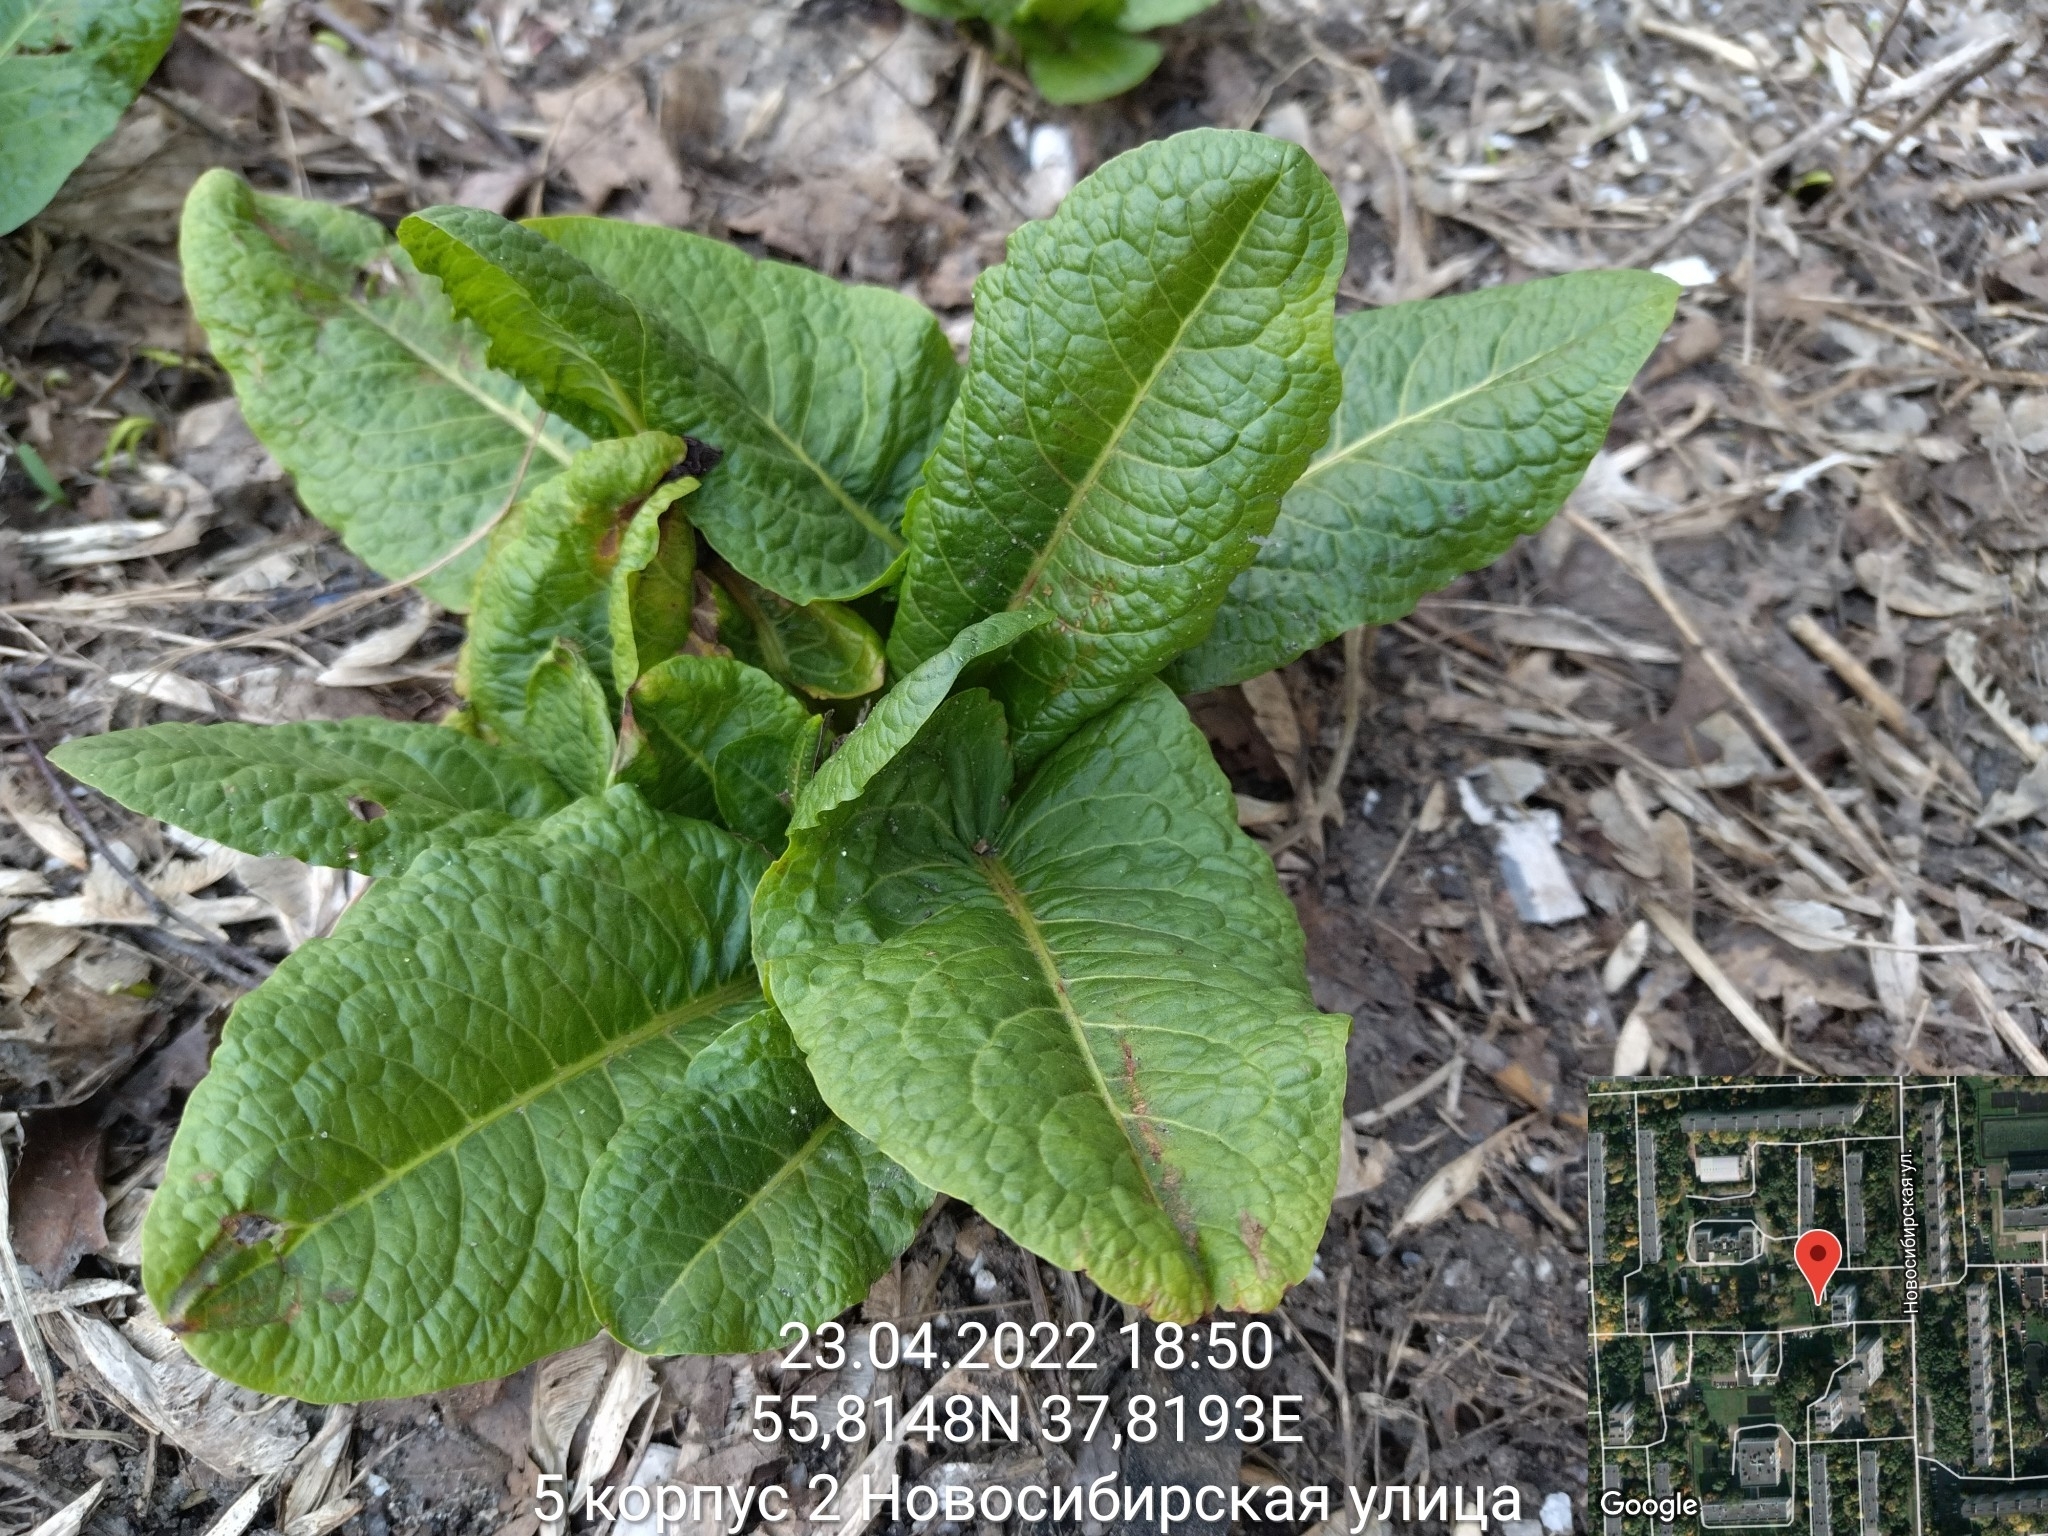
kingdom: Plantae
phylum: Tracheophyta
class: Magnoliopsida
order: Caryophyllales
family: Polygonaceae
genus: Rumex
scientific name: Rumex obtusifolius
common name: Bitter dock
